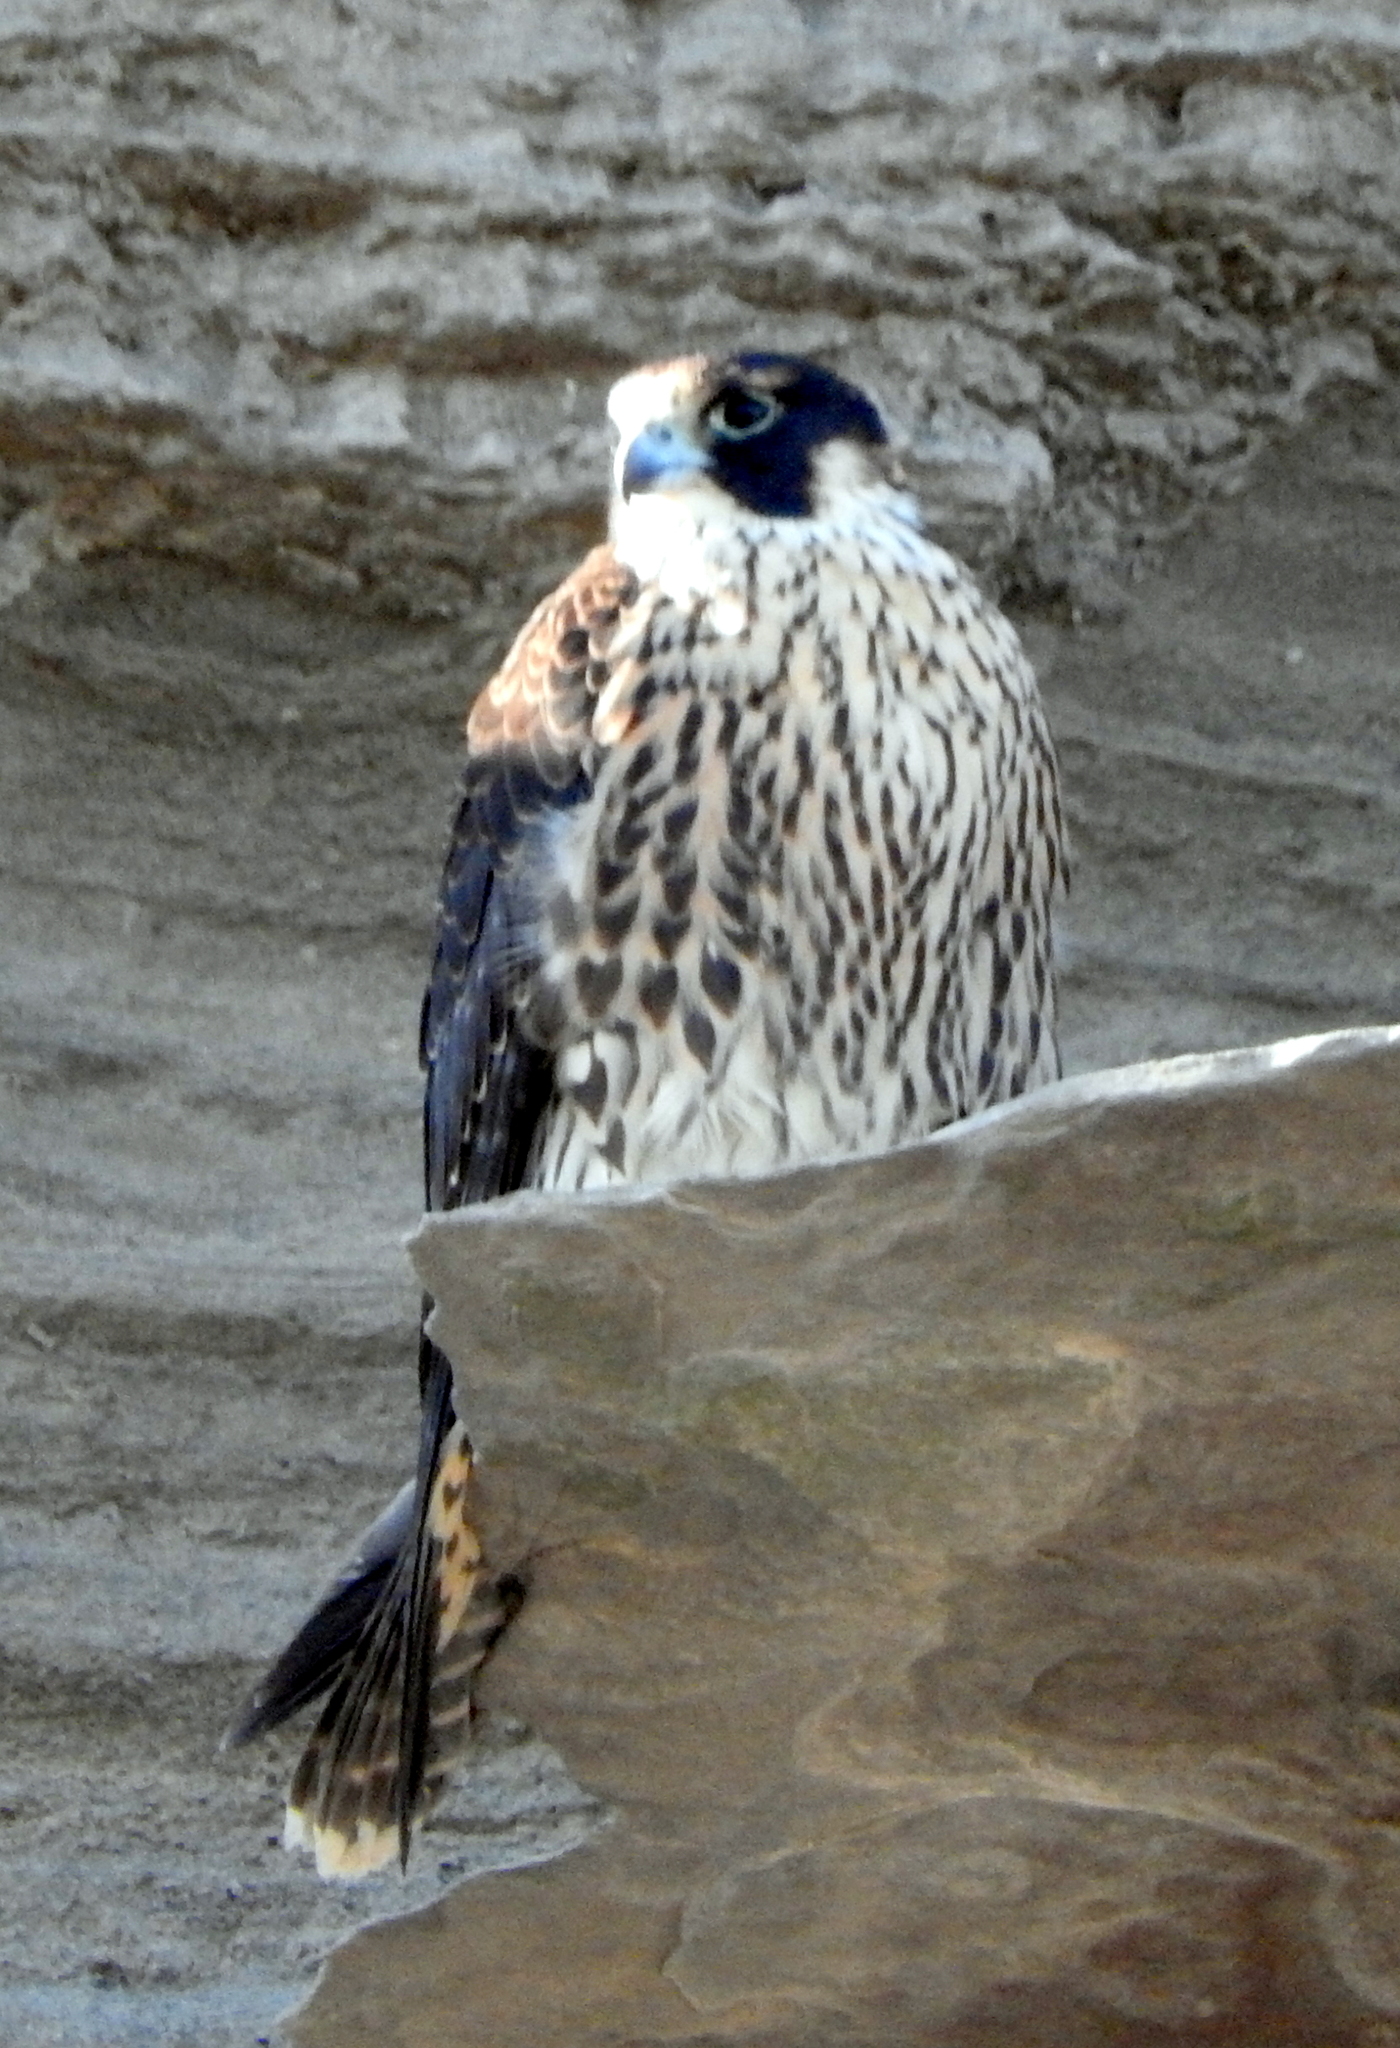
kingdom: Animalia
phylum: Chordata
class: Aves
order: Falconiformes
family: Falconidae
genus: Falco
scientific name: Falco peregrinus
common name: Peregrine falcon
